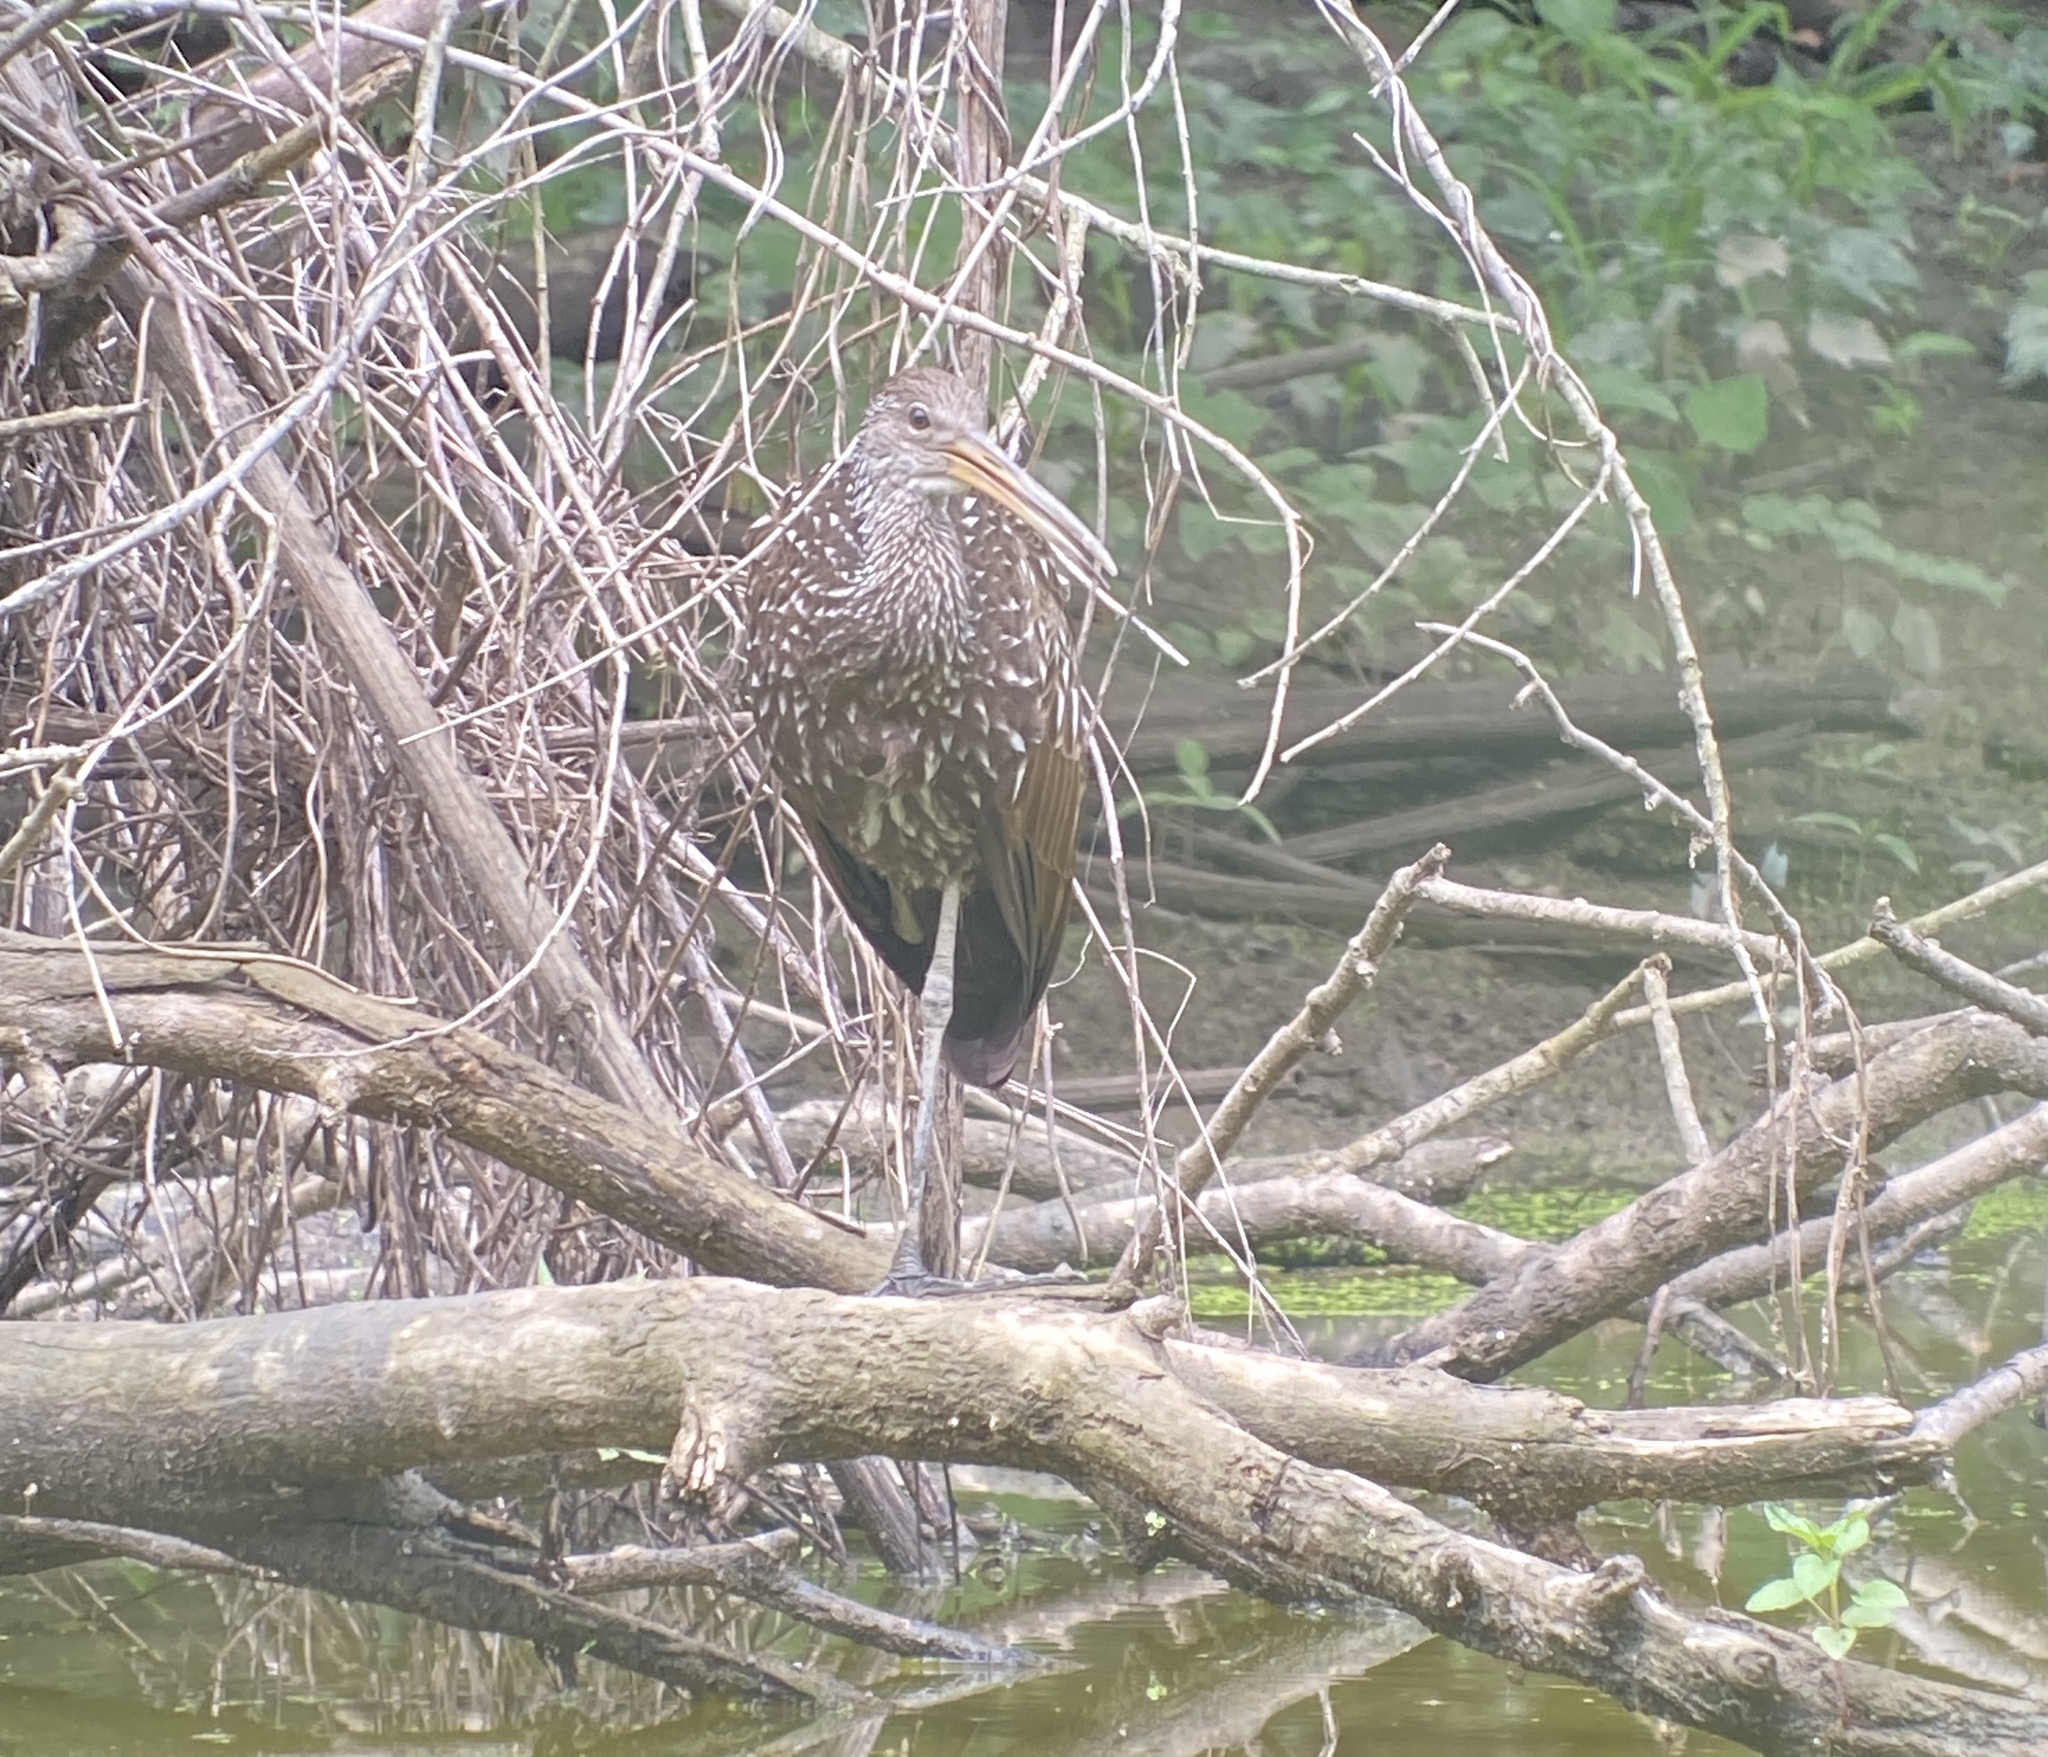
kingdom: Animalia
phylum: Chordata
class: Aves
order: Gruiformes
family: Aramidae
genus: Aramus
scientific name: Aramus guarauna
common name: Limpkin
